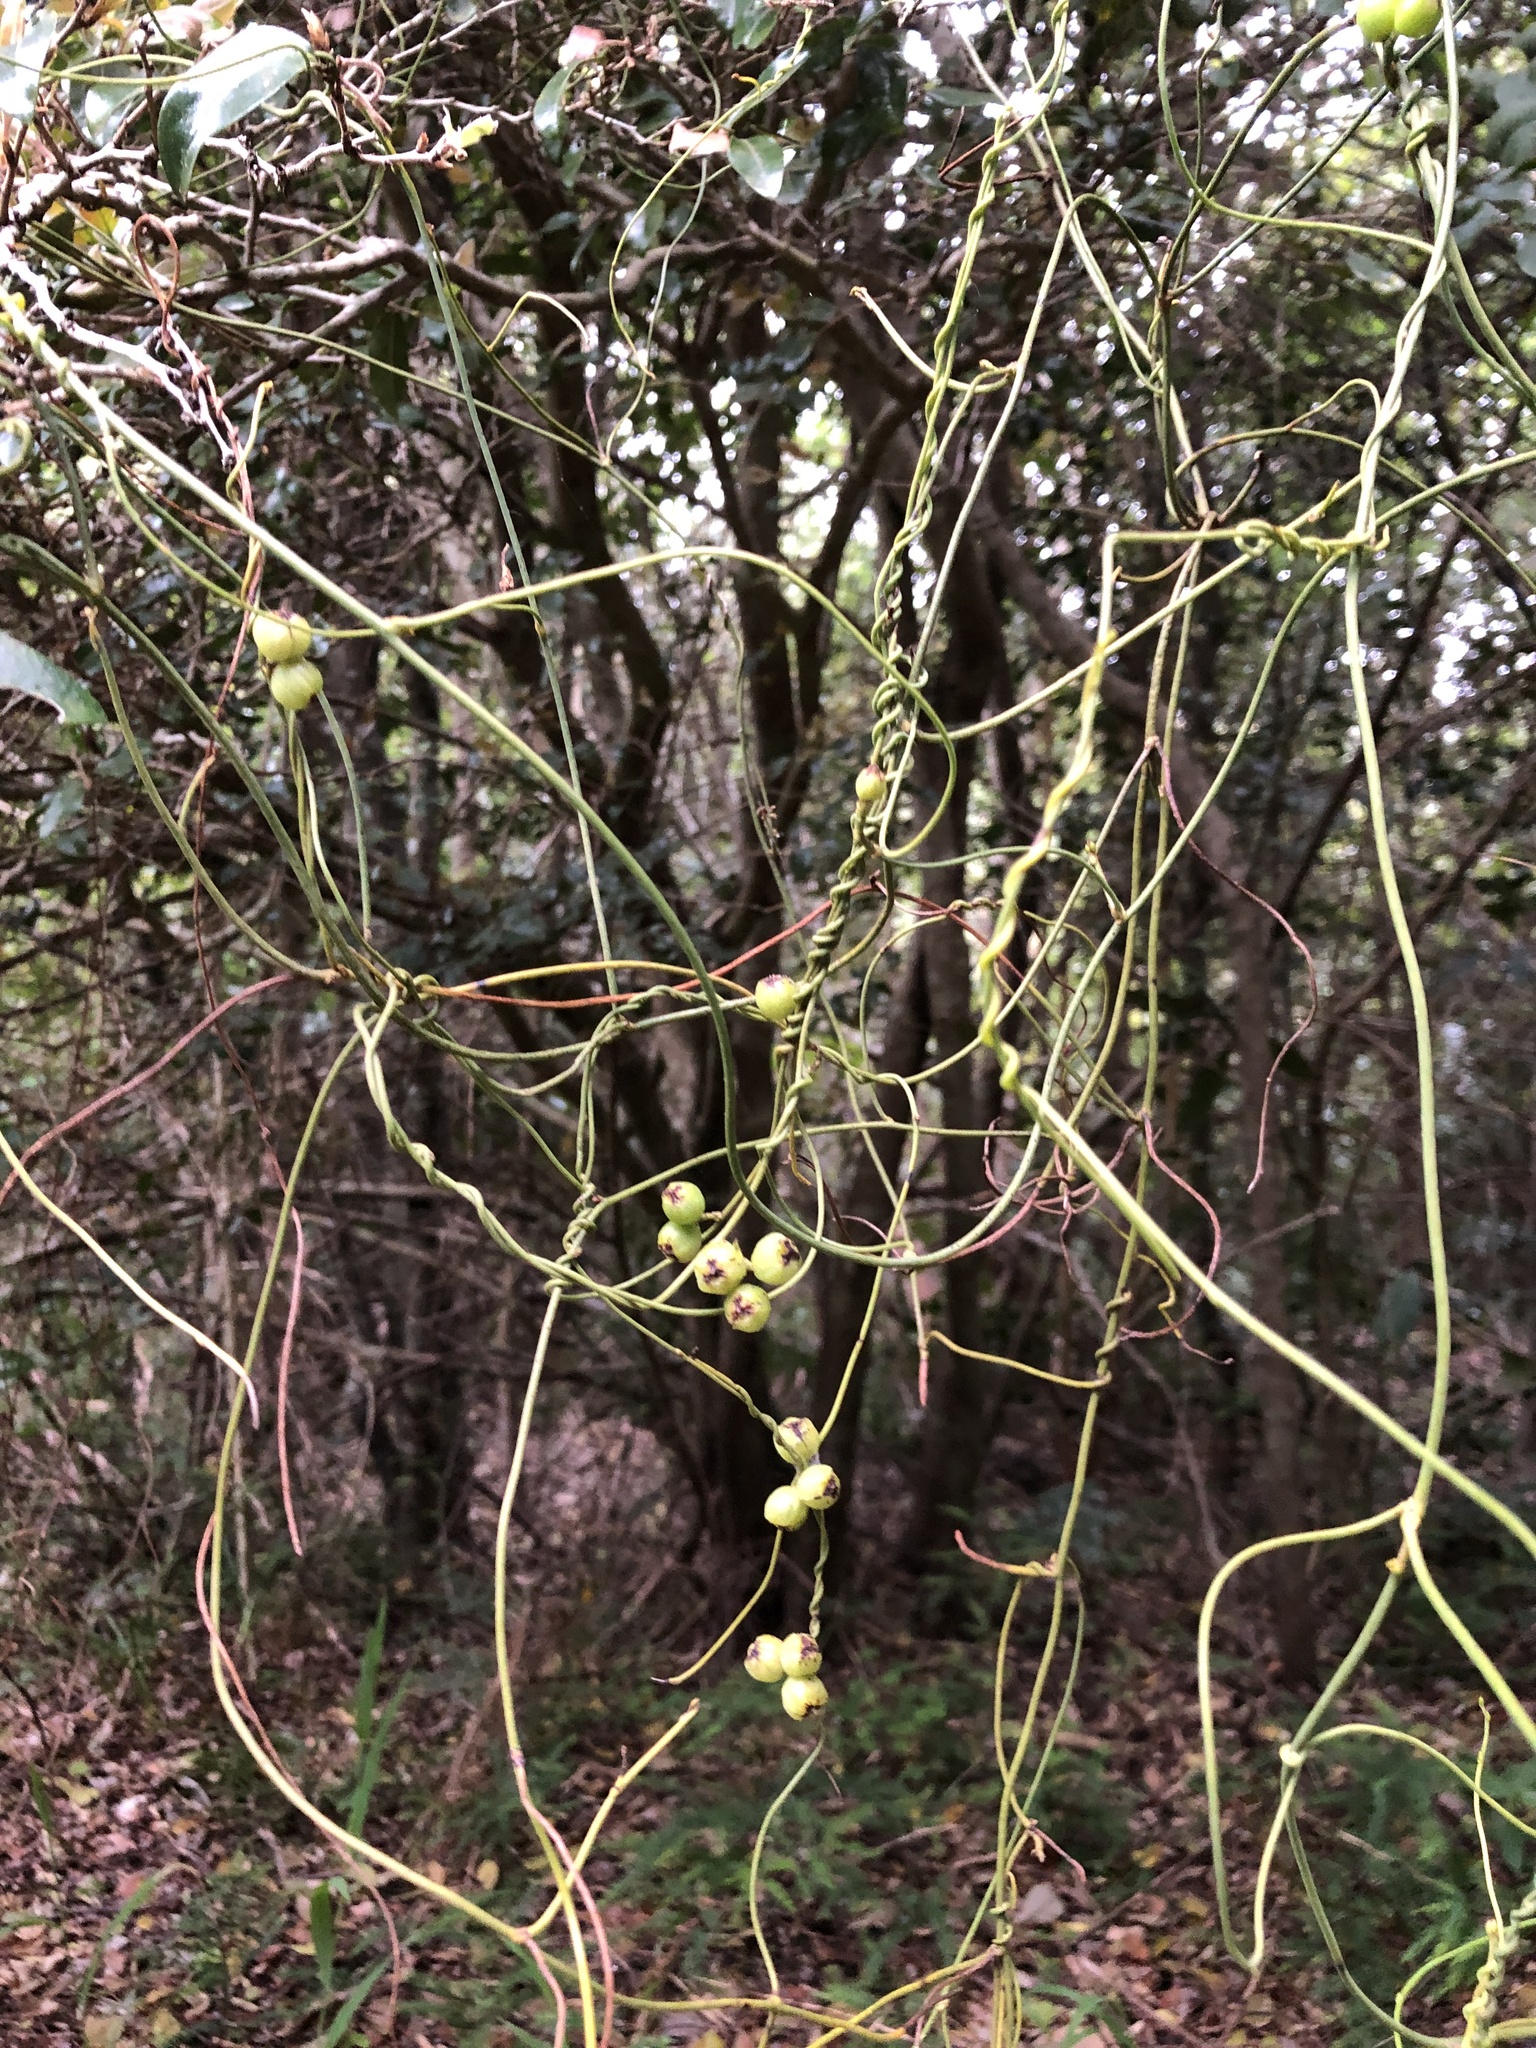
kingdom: Plantae
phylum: Tracheophyta
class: Magnoliopsida
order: Laurales
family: Lauraceae
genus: Cassytha
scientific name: Cassytha ciliolata
